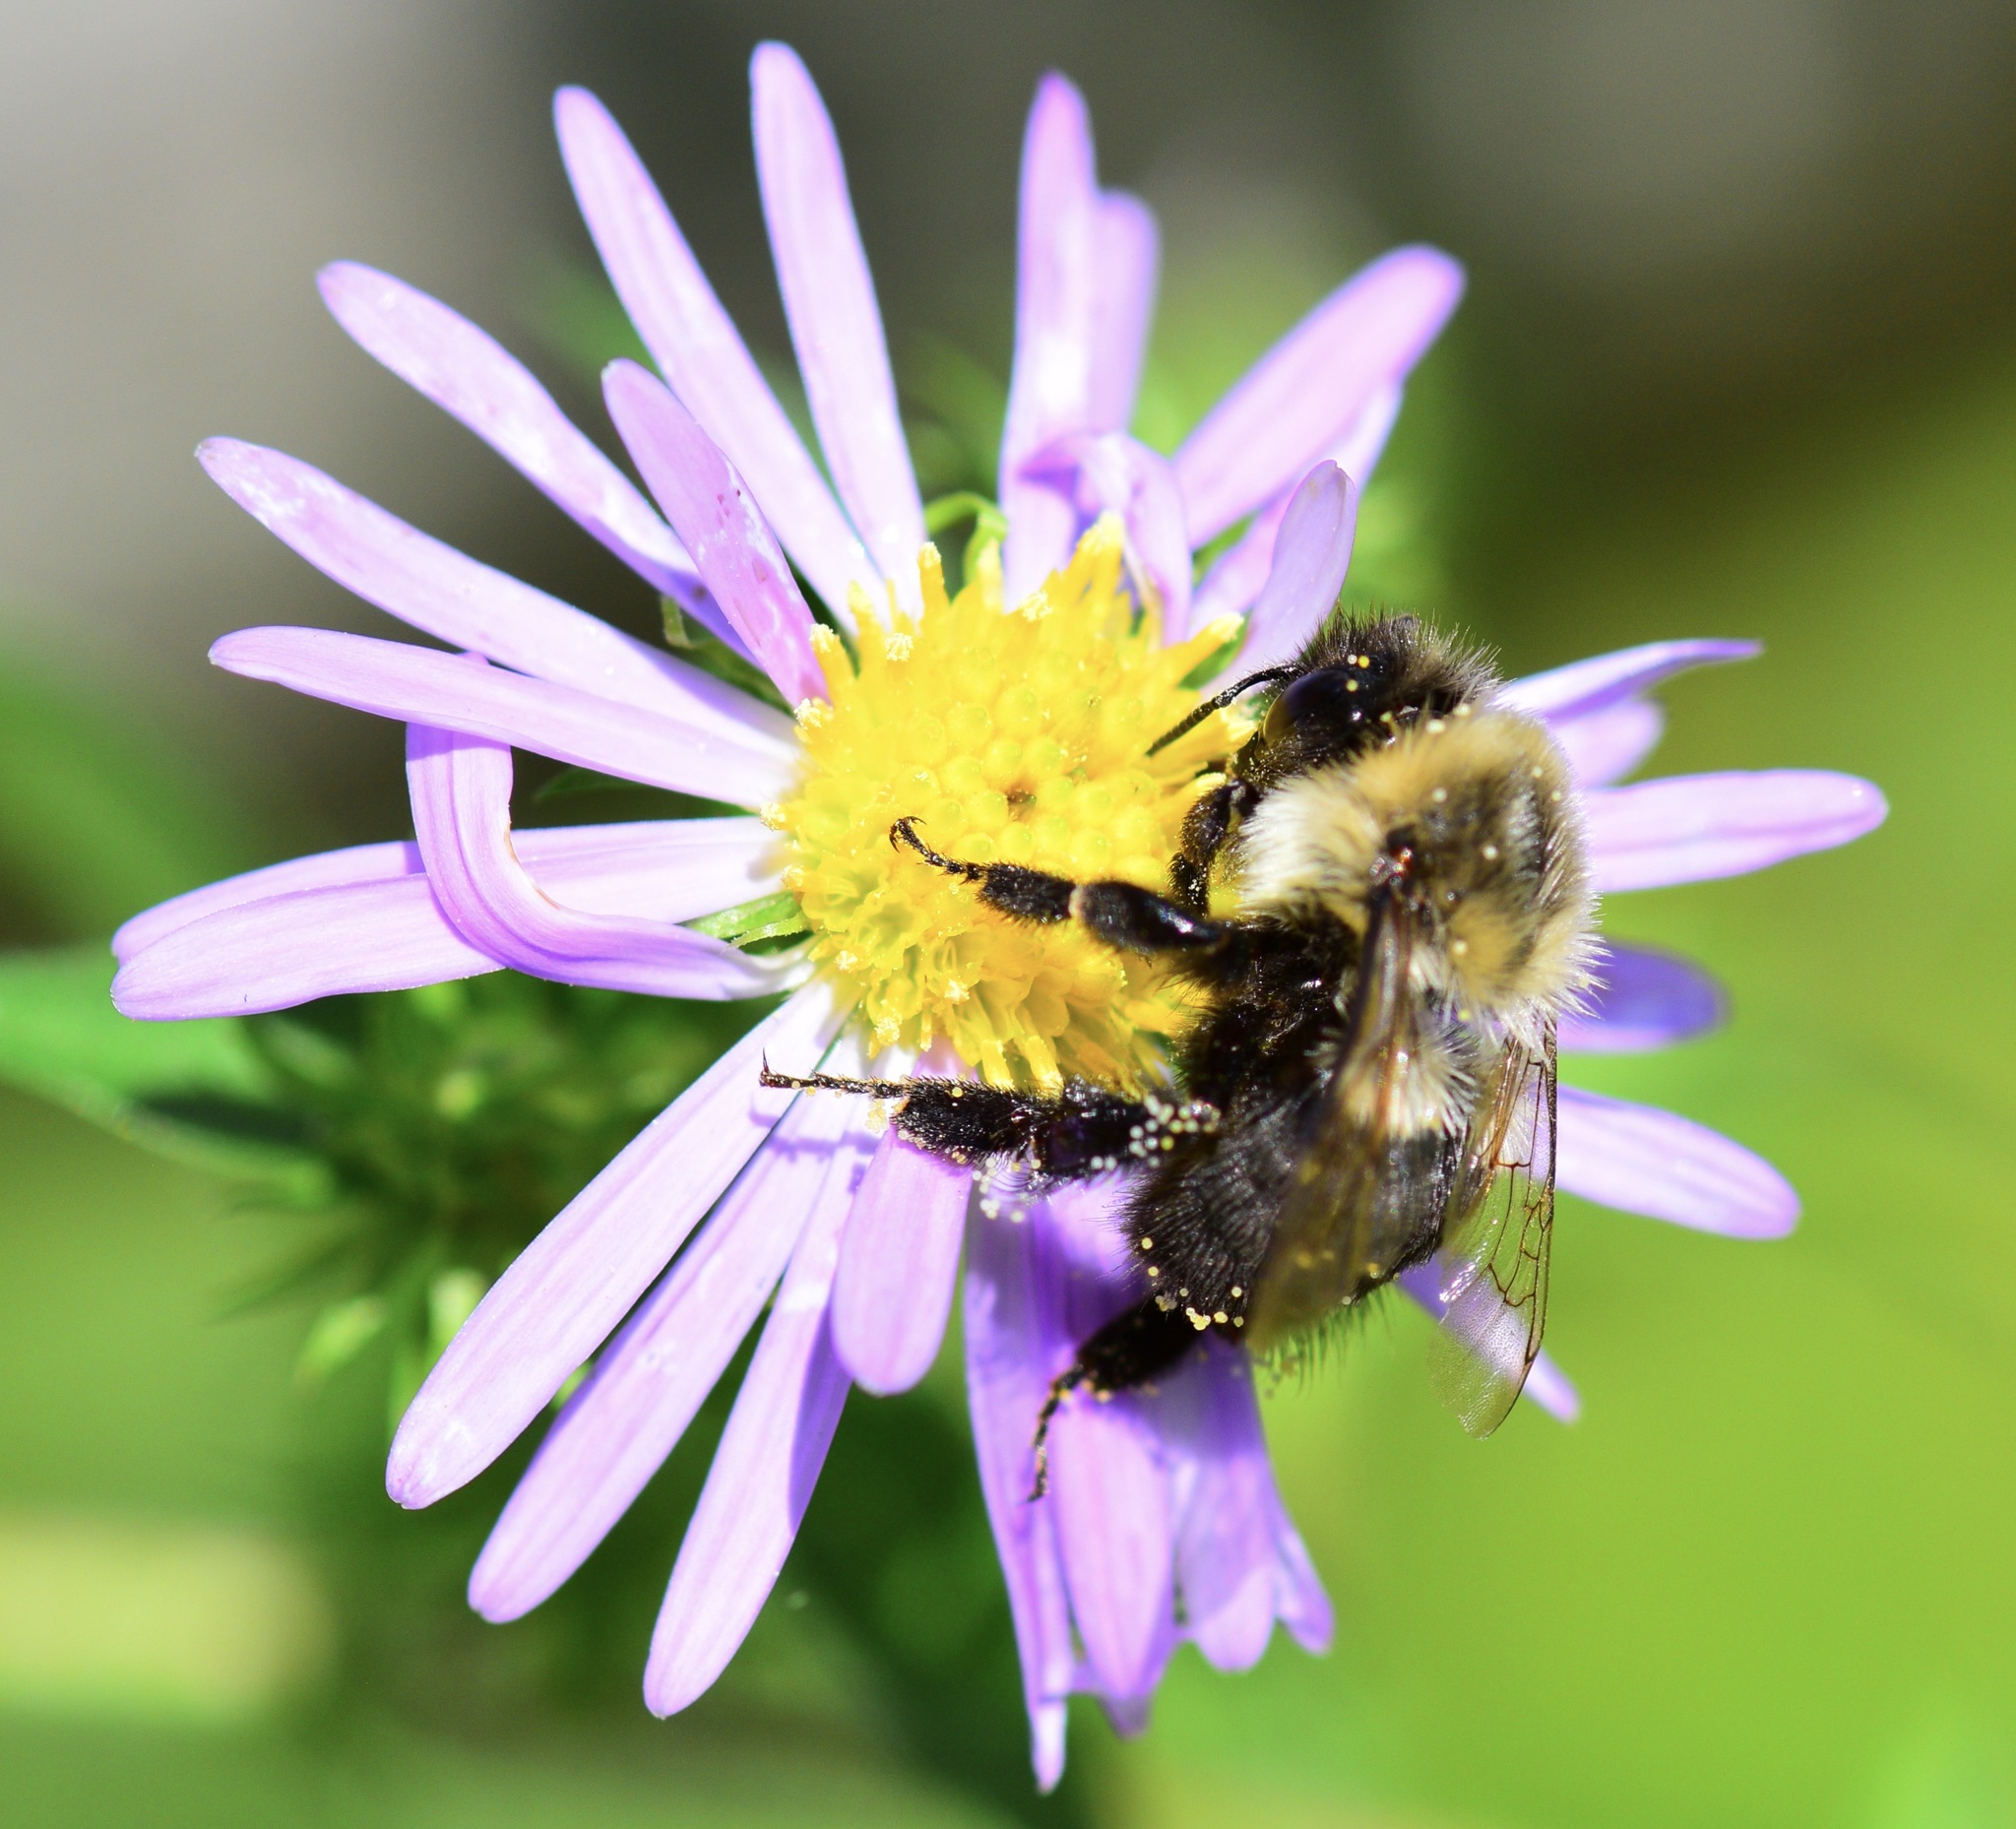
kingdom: Animalia
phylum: Arthropoda
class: Insecta
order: Hymenoptera
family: Apidae
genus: Bombus
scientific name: Bombus impatiens
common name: Common eastern bumble bee
